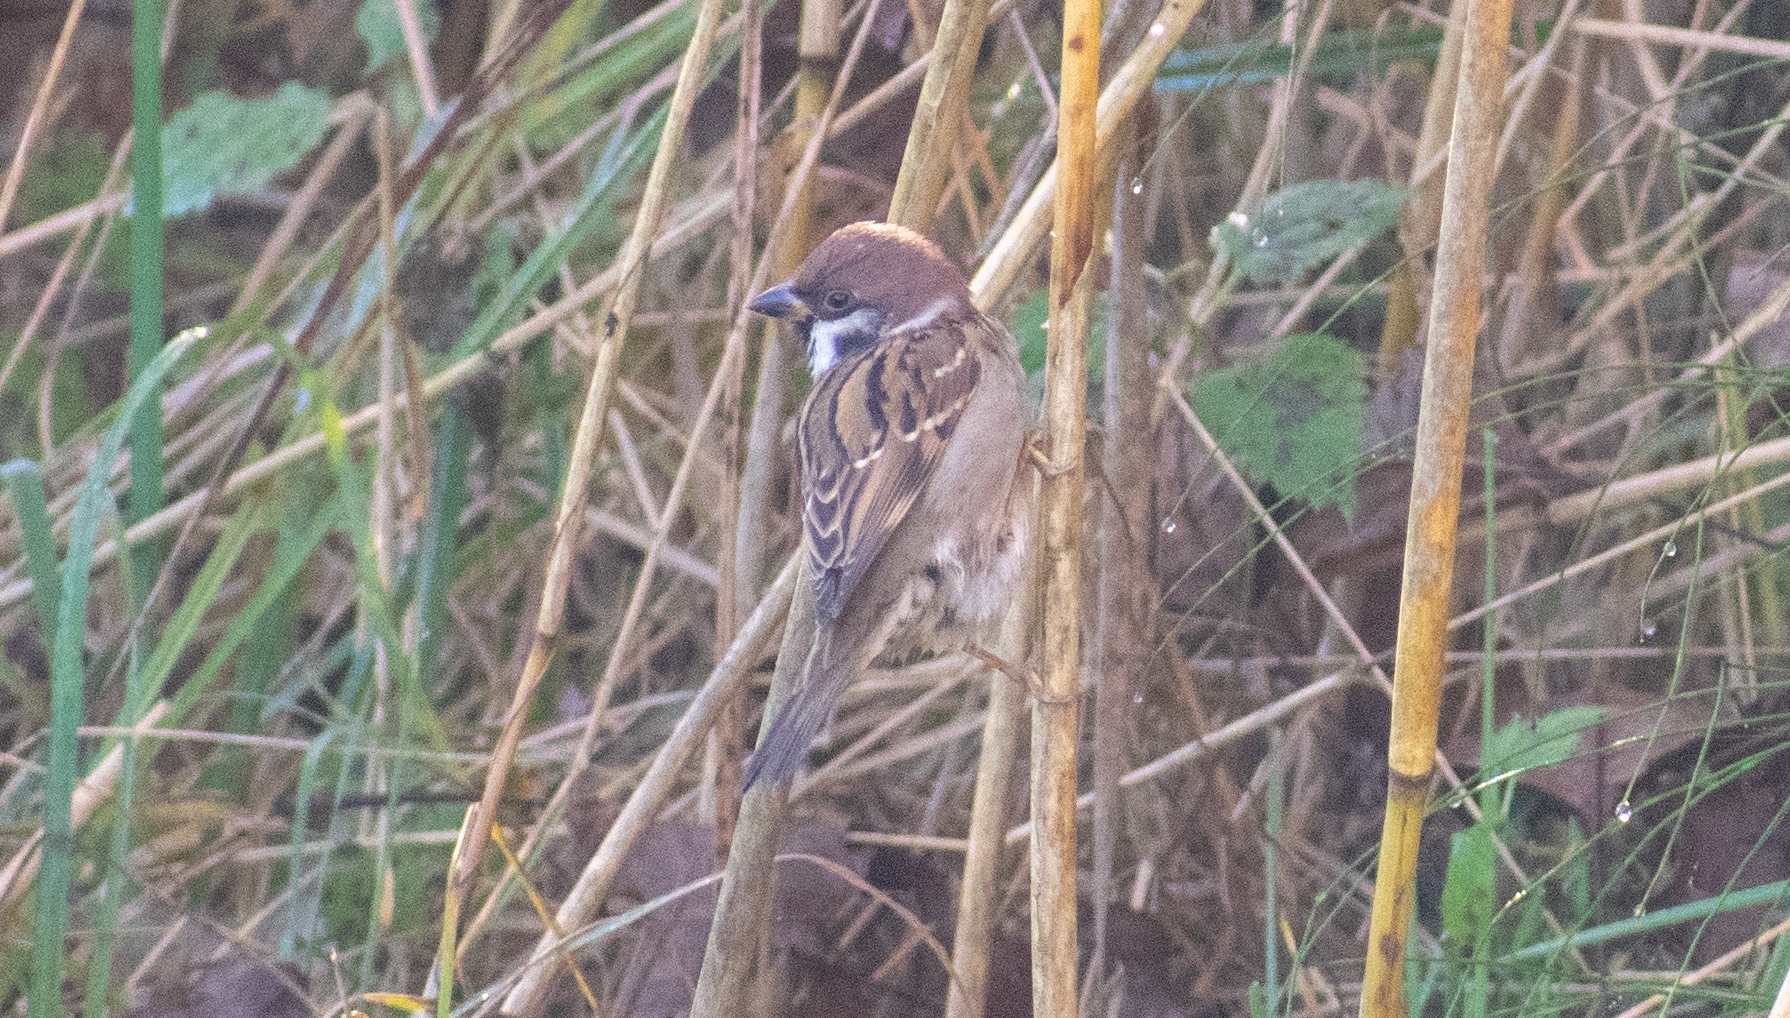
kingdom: Animalia
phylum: Chordata
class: Aves
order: Passeriformes
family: Passeridae
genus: Passer
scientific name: Passer montanus
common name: Eurasian tree sparrow
